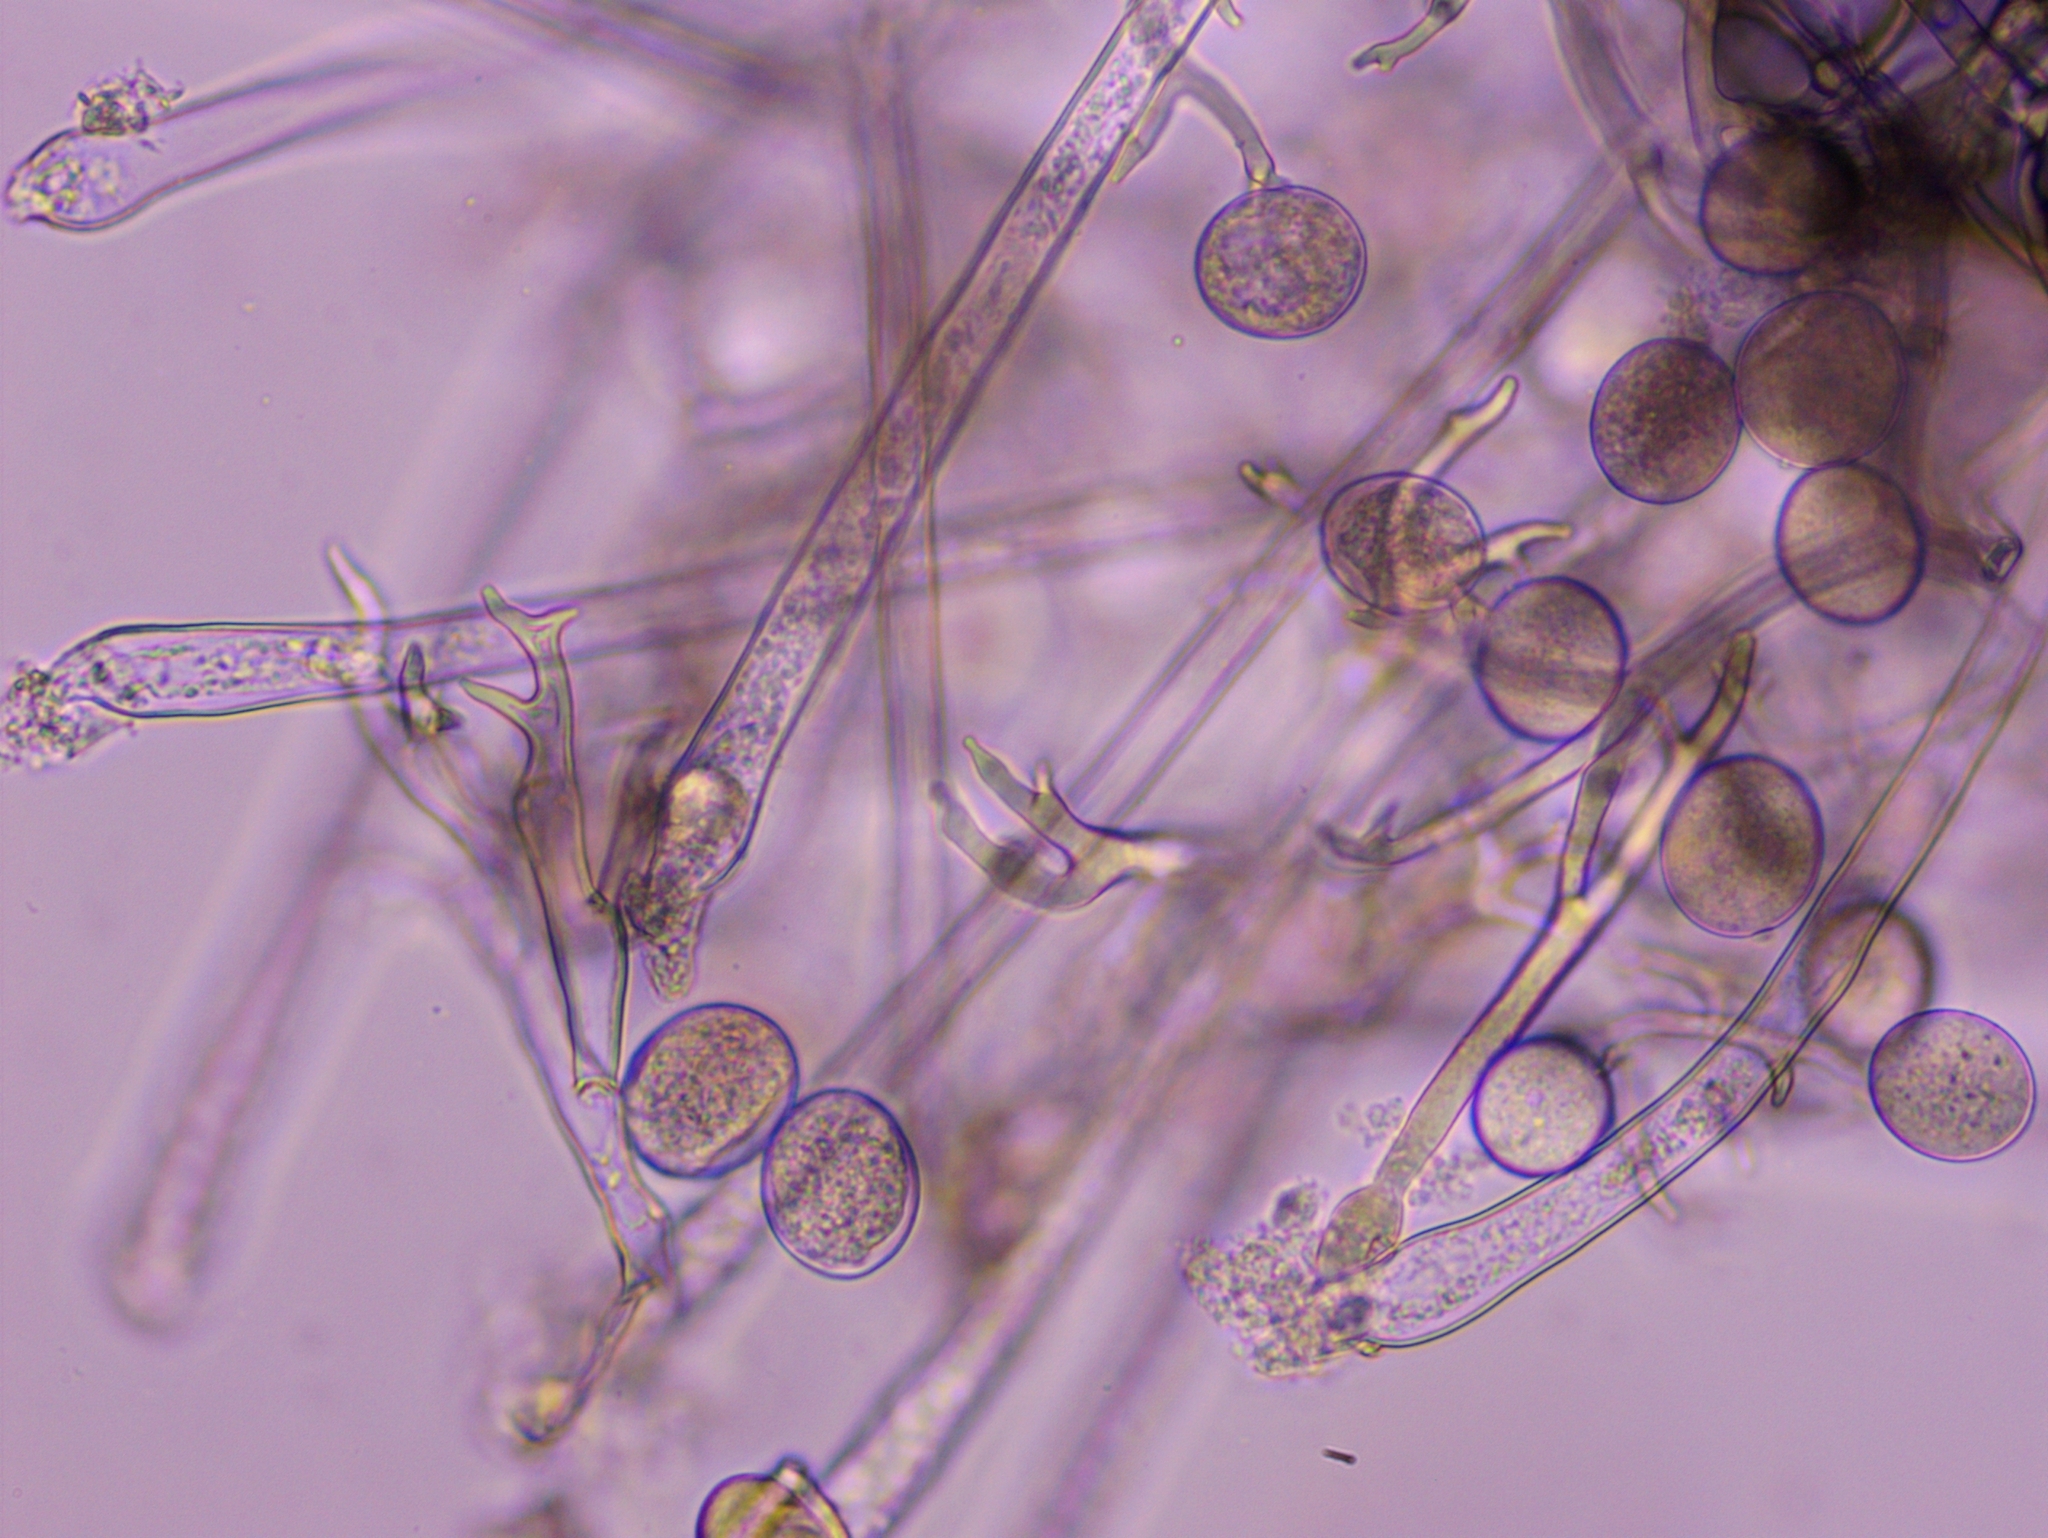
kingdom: Chromista
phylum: Oomycota
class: Peronosporea
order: Peronosporales
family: Peronosporaceae
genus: Peronospora
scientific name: Peronospora arvensis
